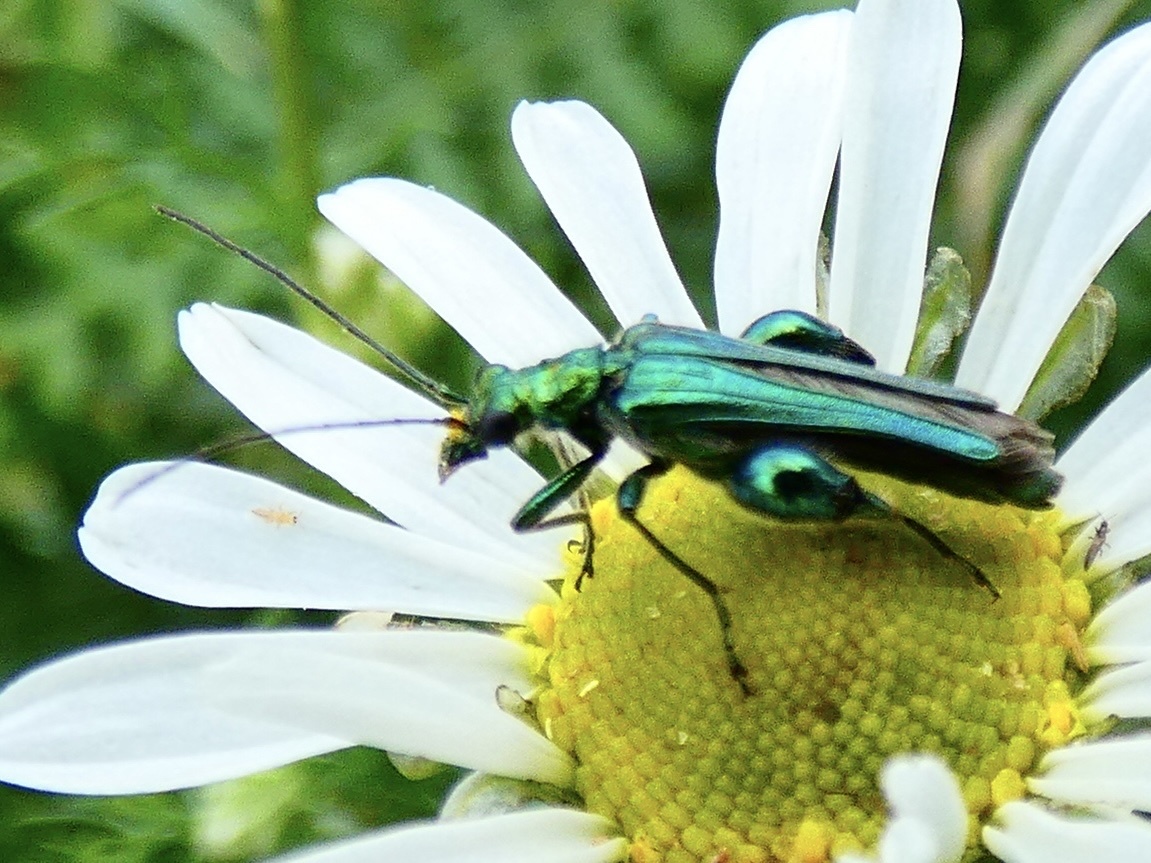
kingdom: Animalia
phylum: Arthropoda
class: Insecta
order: Coleoptera
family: Oedemeridae
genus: Oedemera
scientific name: Oedemera nobilis
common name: Swollen-thighed beetle
